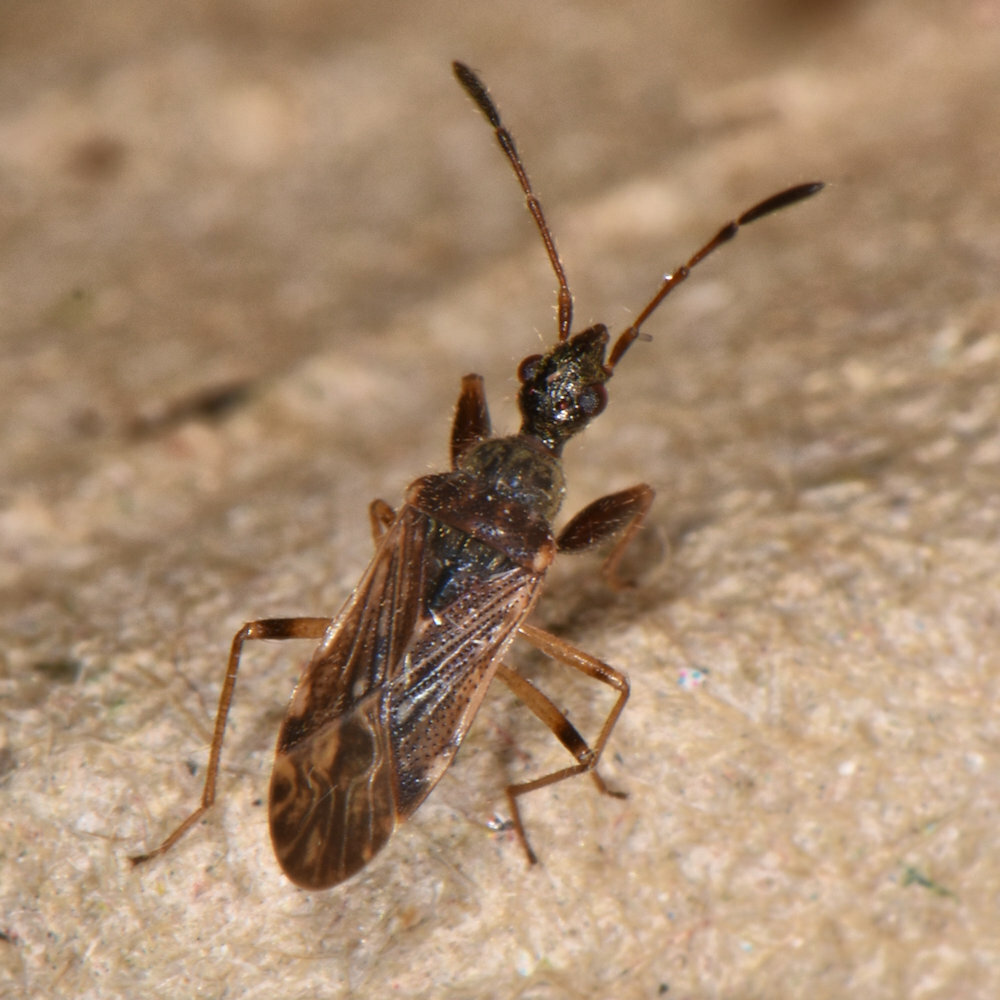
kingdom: Animalia
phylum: Arthropoda
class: Insecta
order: Hemiptera
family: Rhyparochromidae
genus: Heraeus
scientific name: Heraeus plebejus
